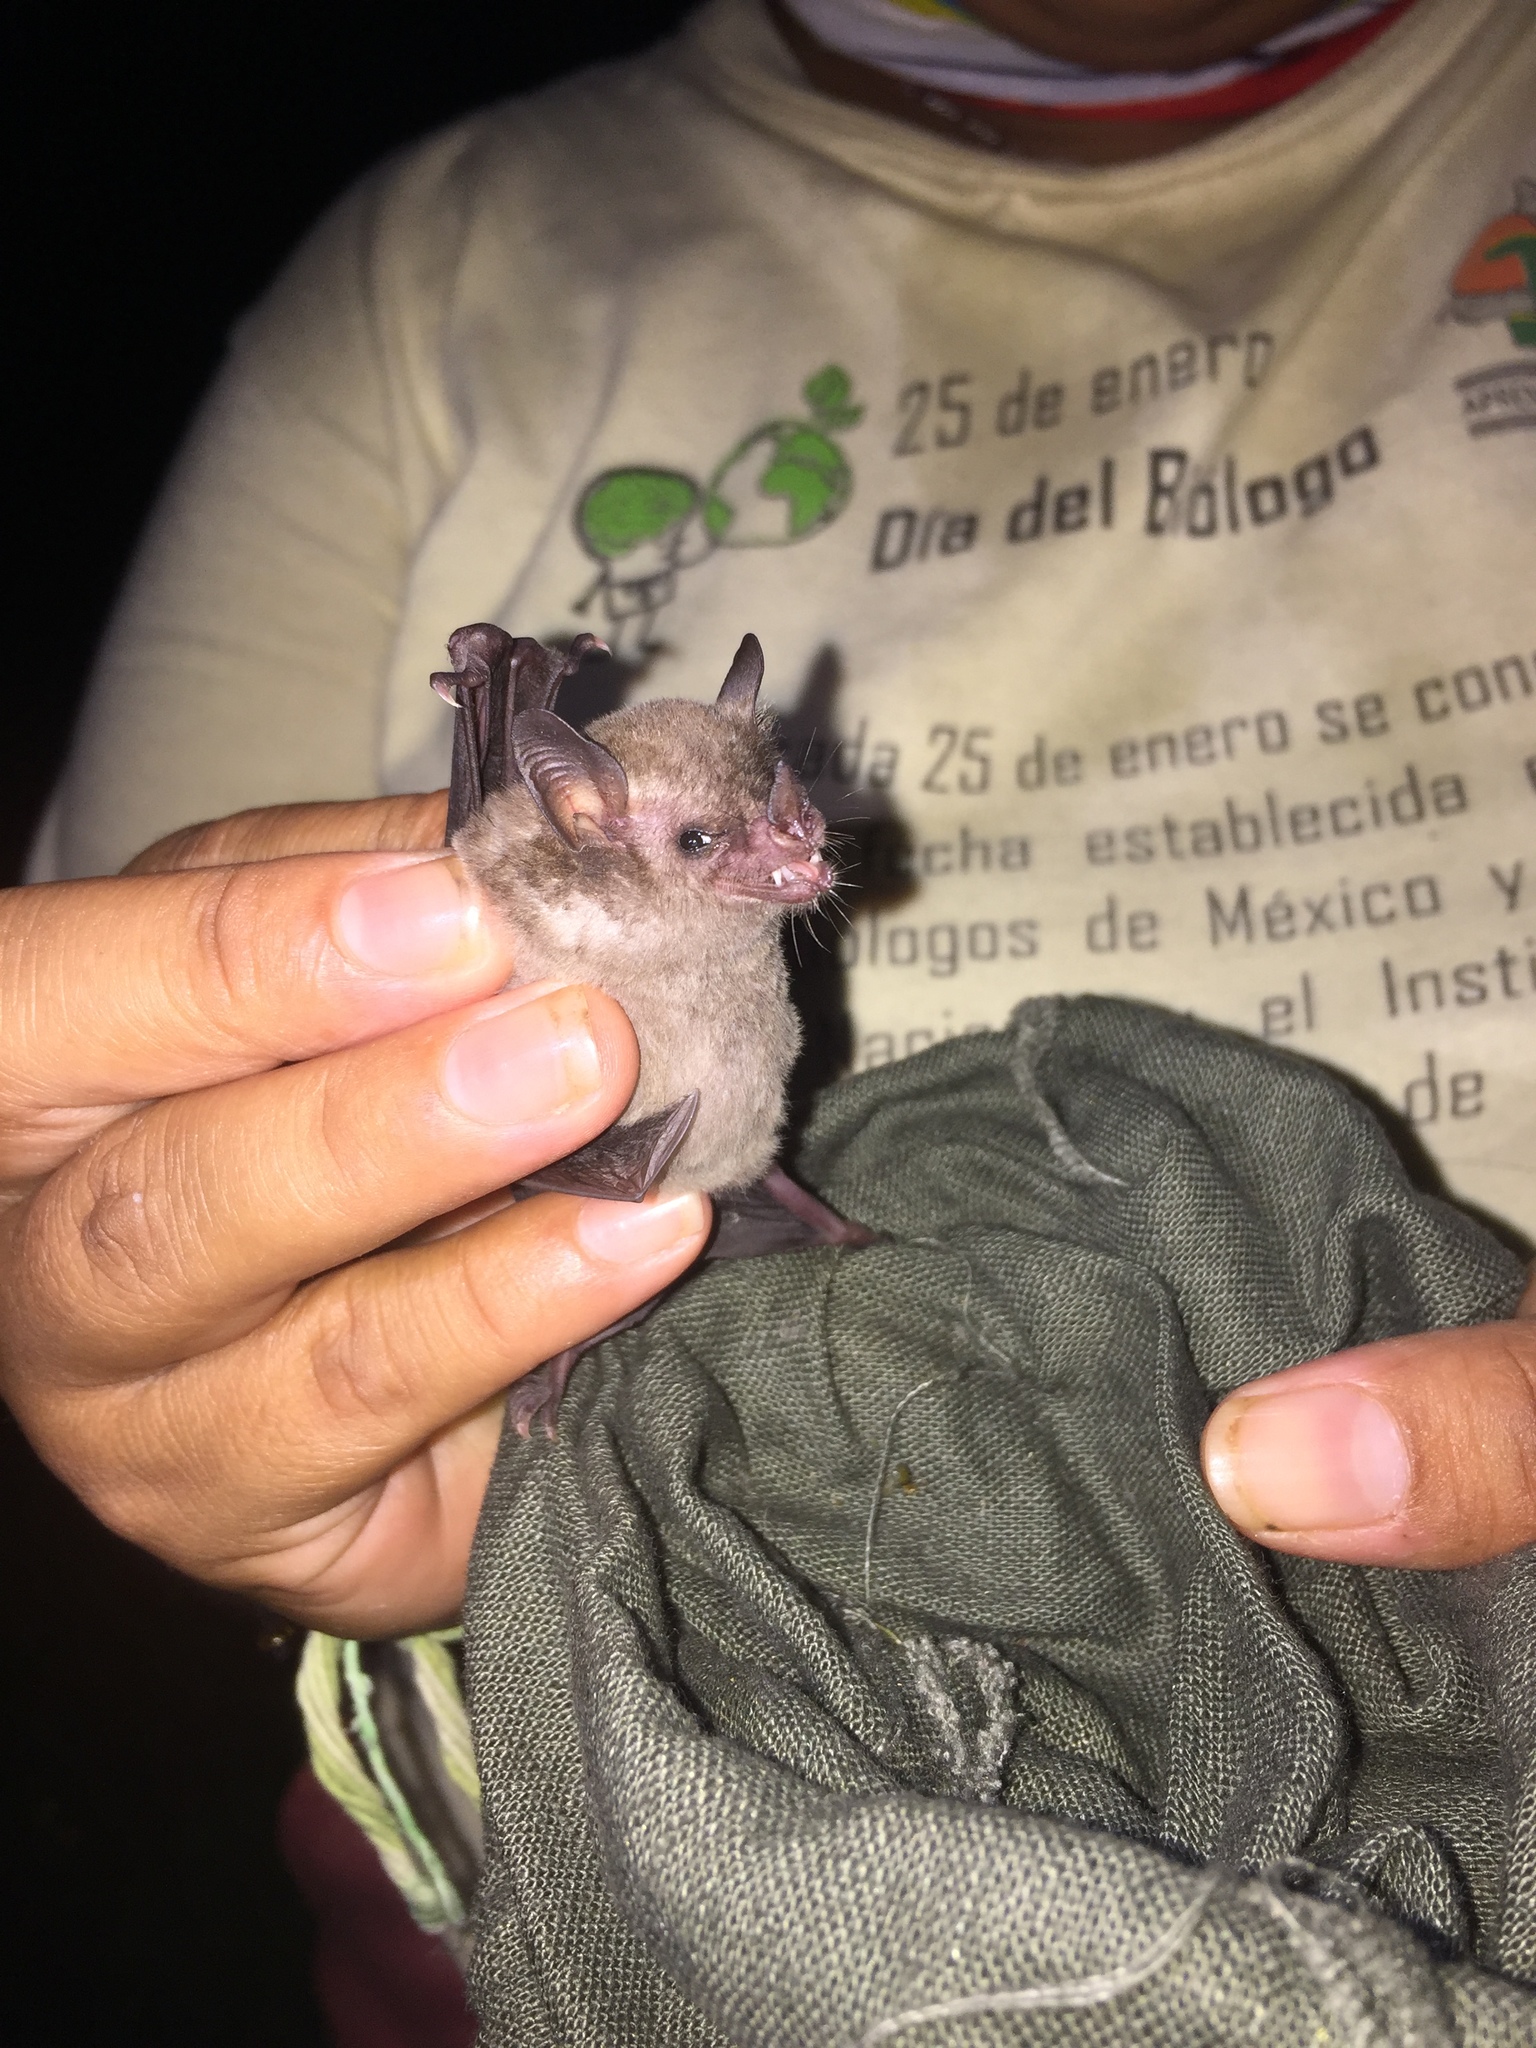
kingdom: Animalia
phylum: Chordata
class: Mammalia
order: Chiroptera
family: Phyllostomidae
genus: Glossophaga
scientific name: Glossophaga soricina
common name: Pallas's long-tongued bat
